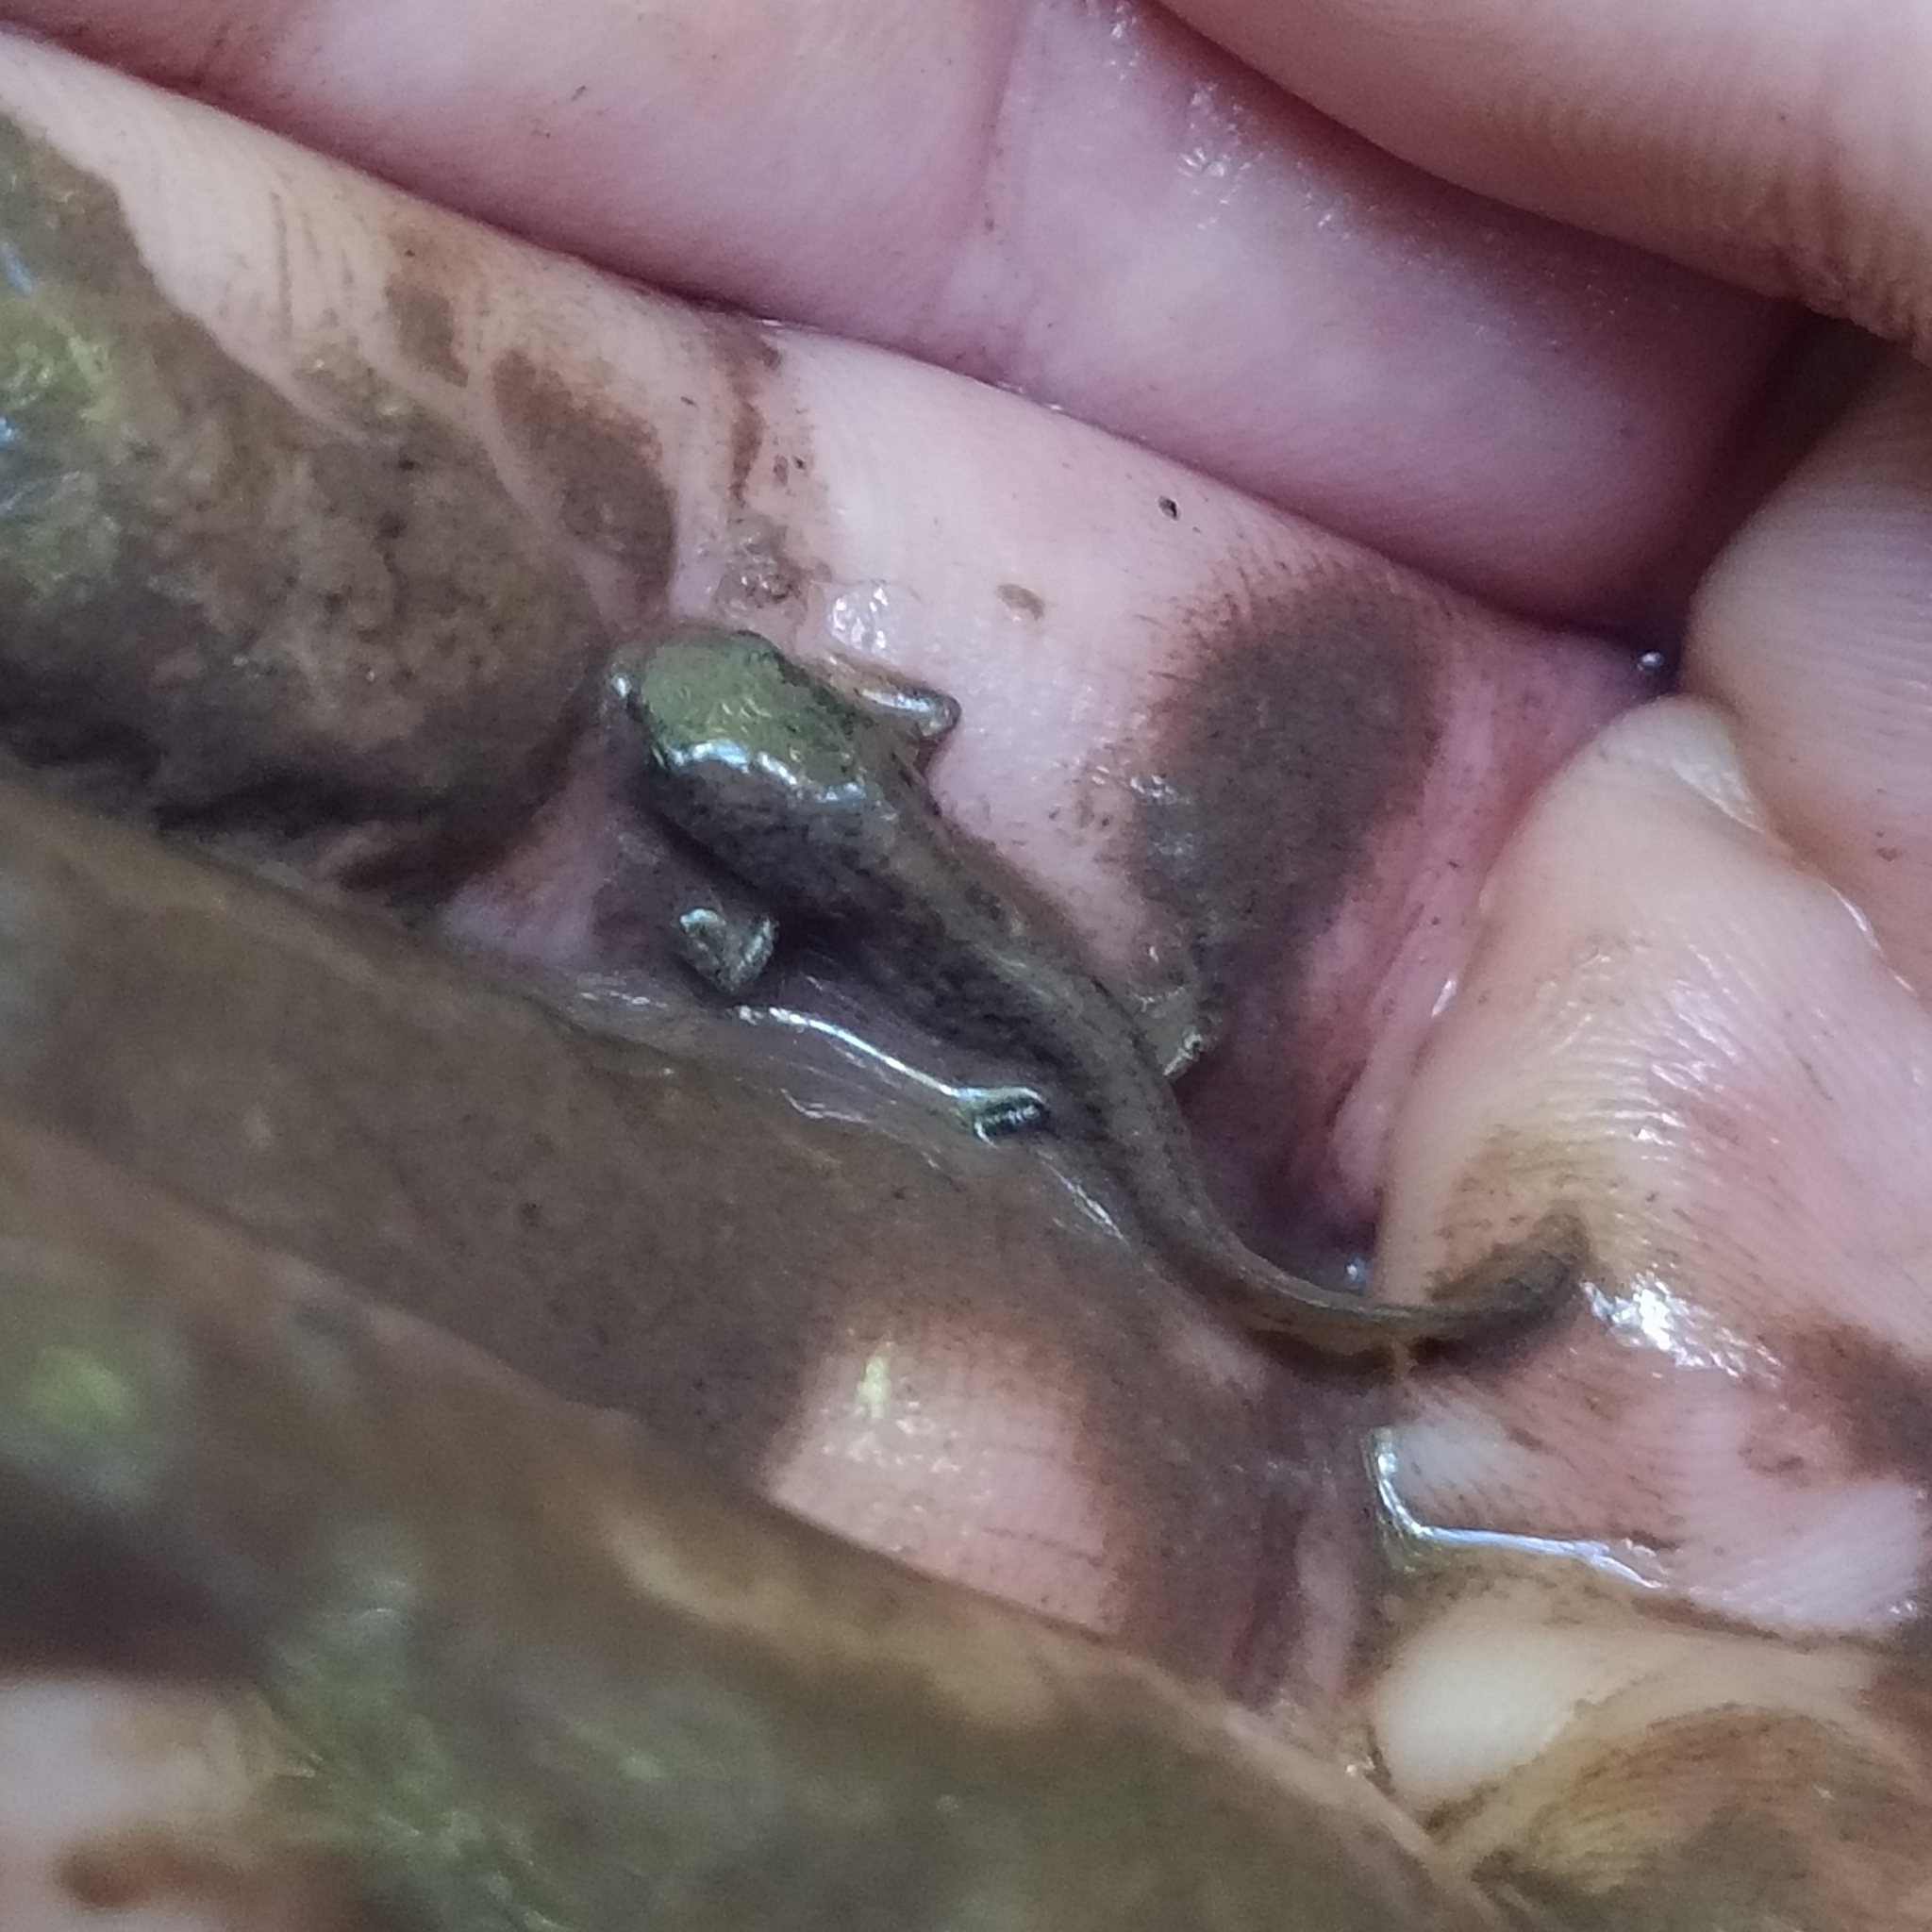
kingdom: Animalia
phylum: Chordata
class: Amphibia
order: Caudata
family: Salamandridae
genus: Salamandra
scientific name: Salamandra salamandra
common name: Fire salamander
